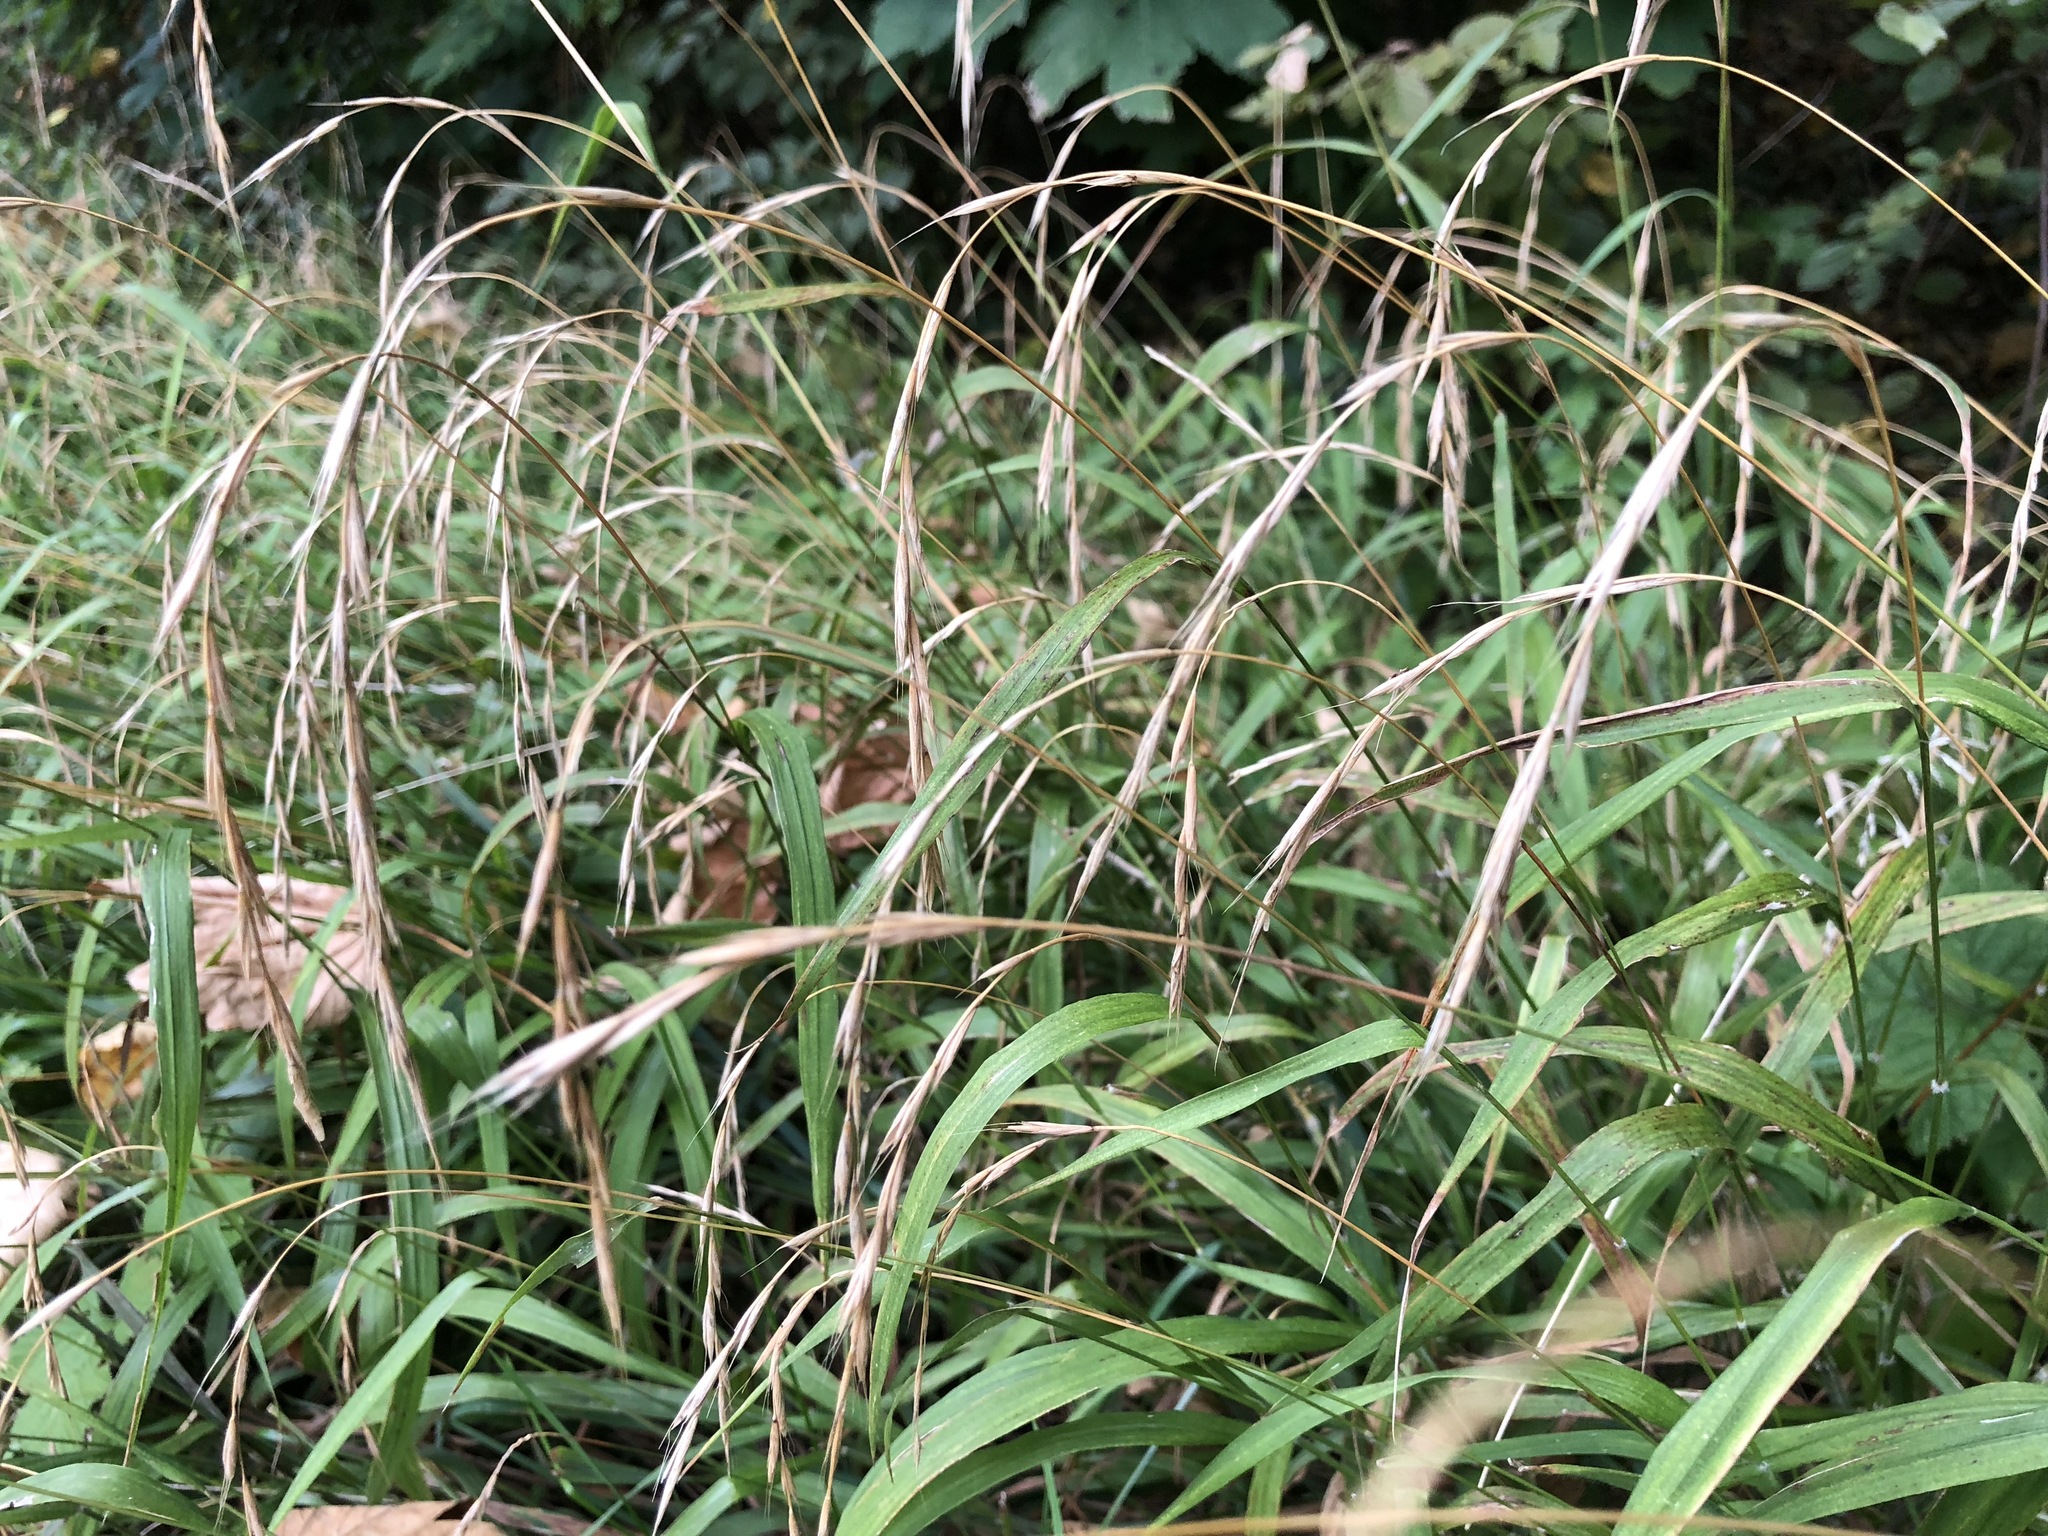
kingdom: Plantae
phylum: Tracheophyta
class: Liliopsida
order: Poales
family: Poaceae
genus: Brachypodium
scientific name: Brachypodium sylvaticum
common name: False-brome
